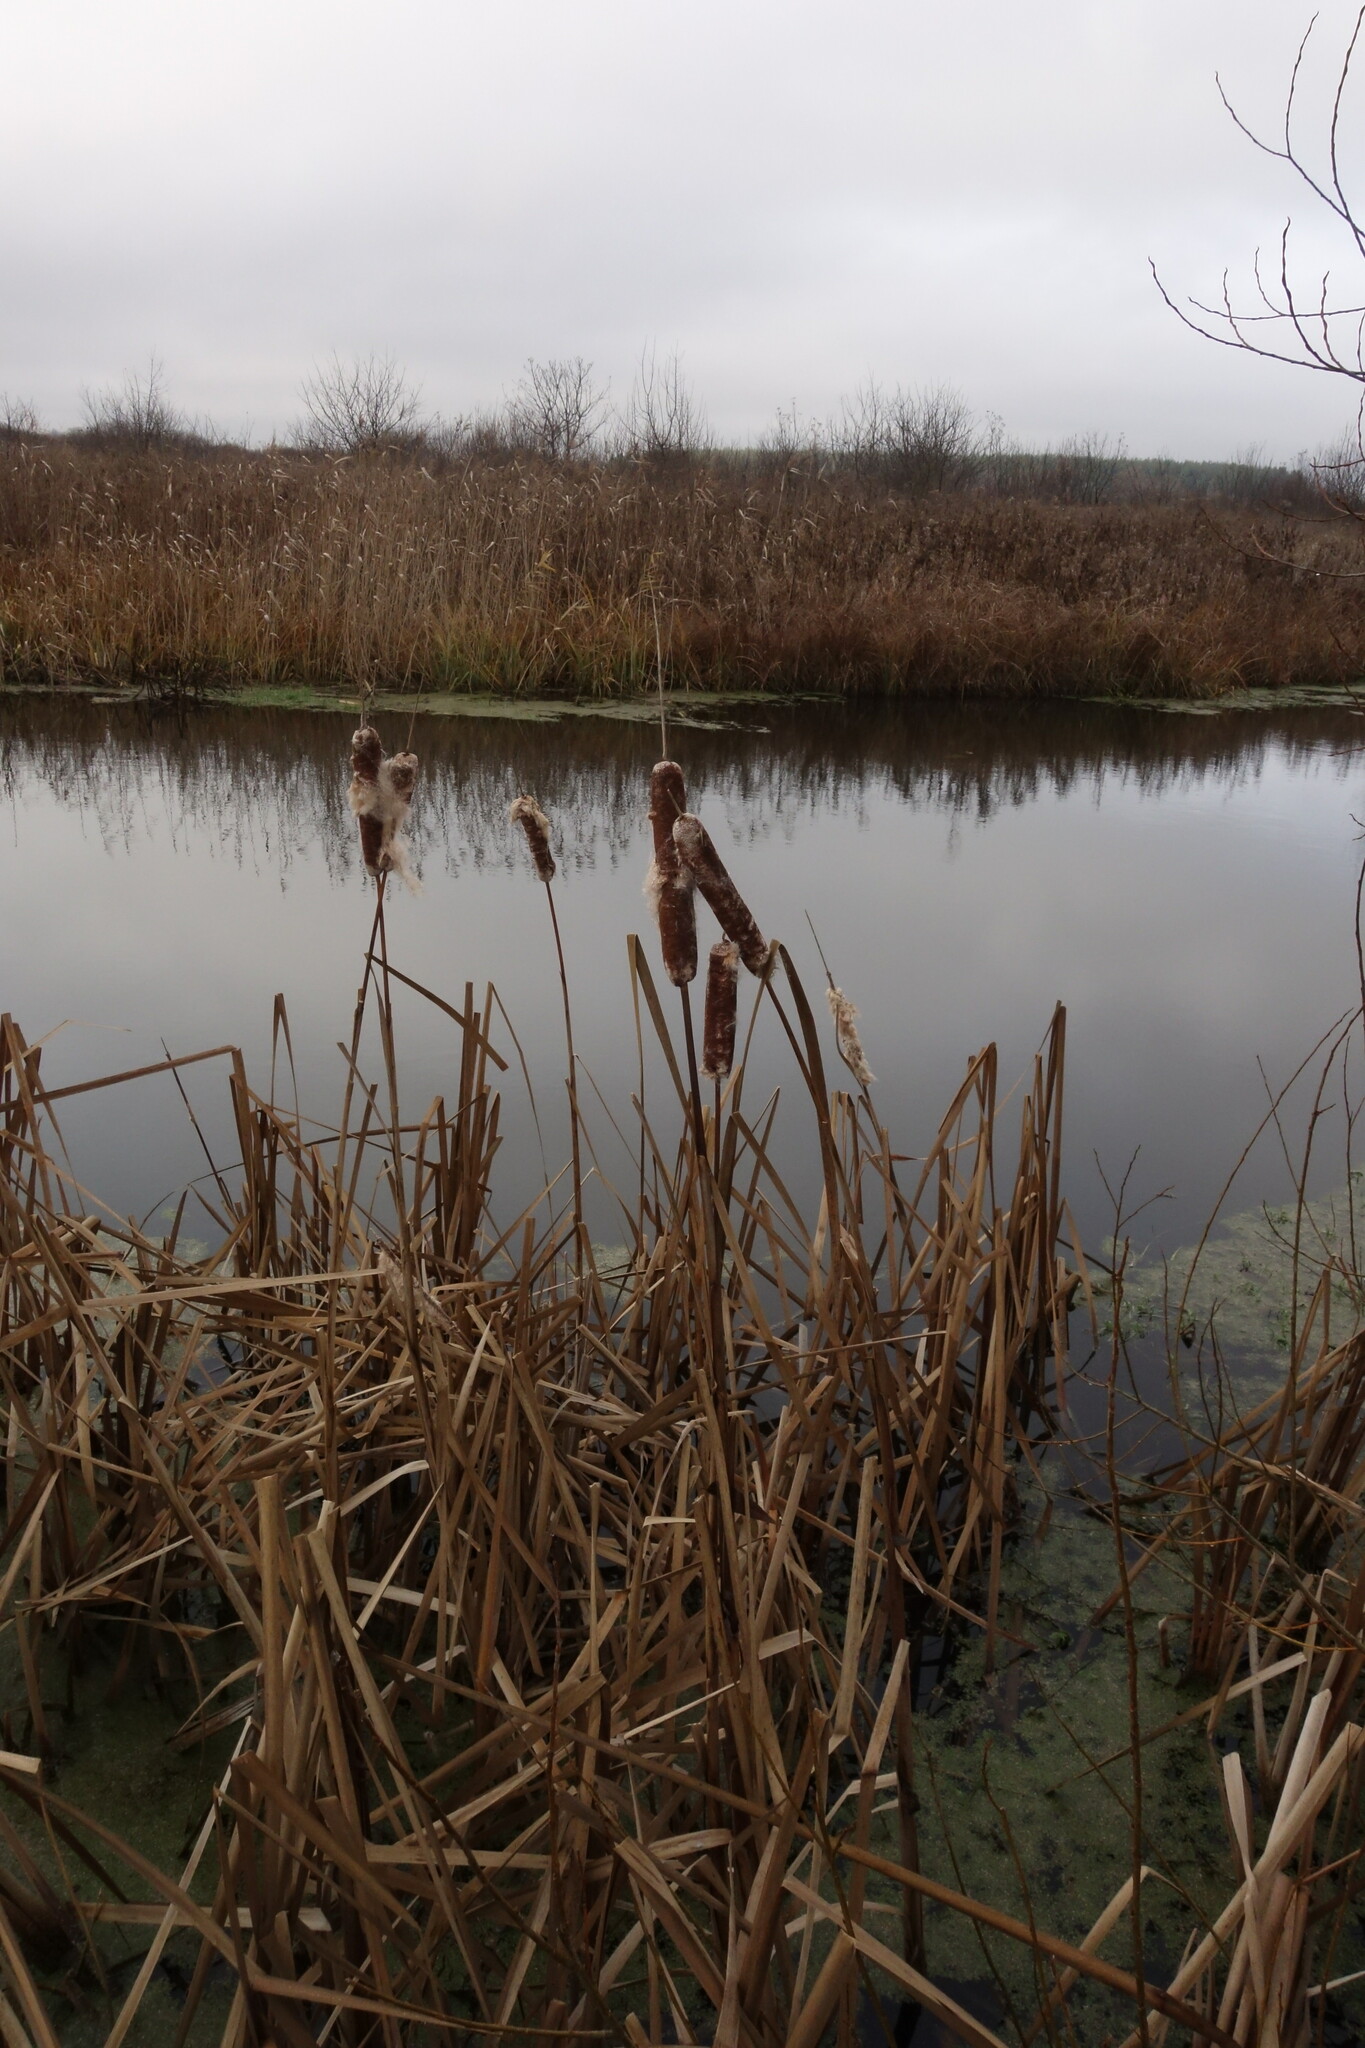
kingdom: Plantae
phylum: Tracheophyta
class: Liliopsida
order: Poales
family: Typhaceae
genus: Typha
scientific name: Typha latifolia
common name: Broadleaf cattail
